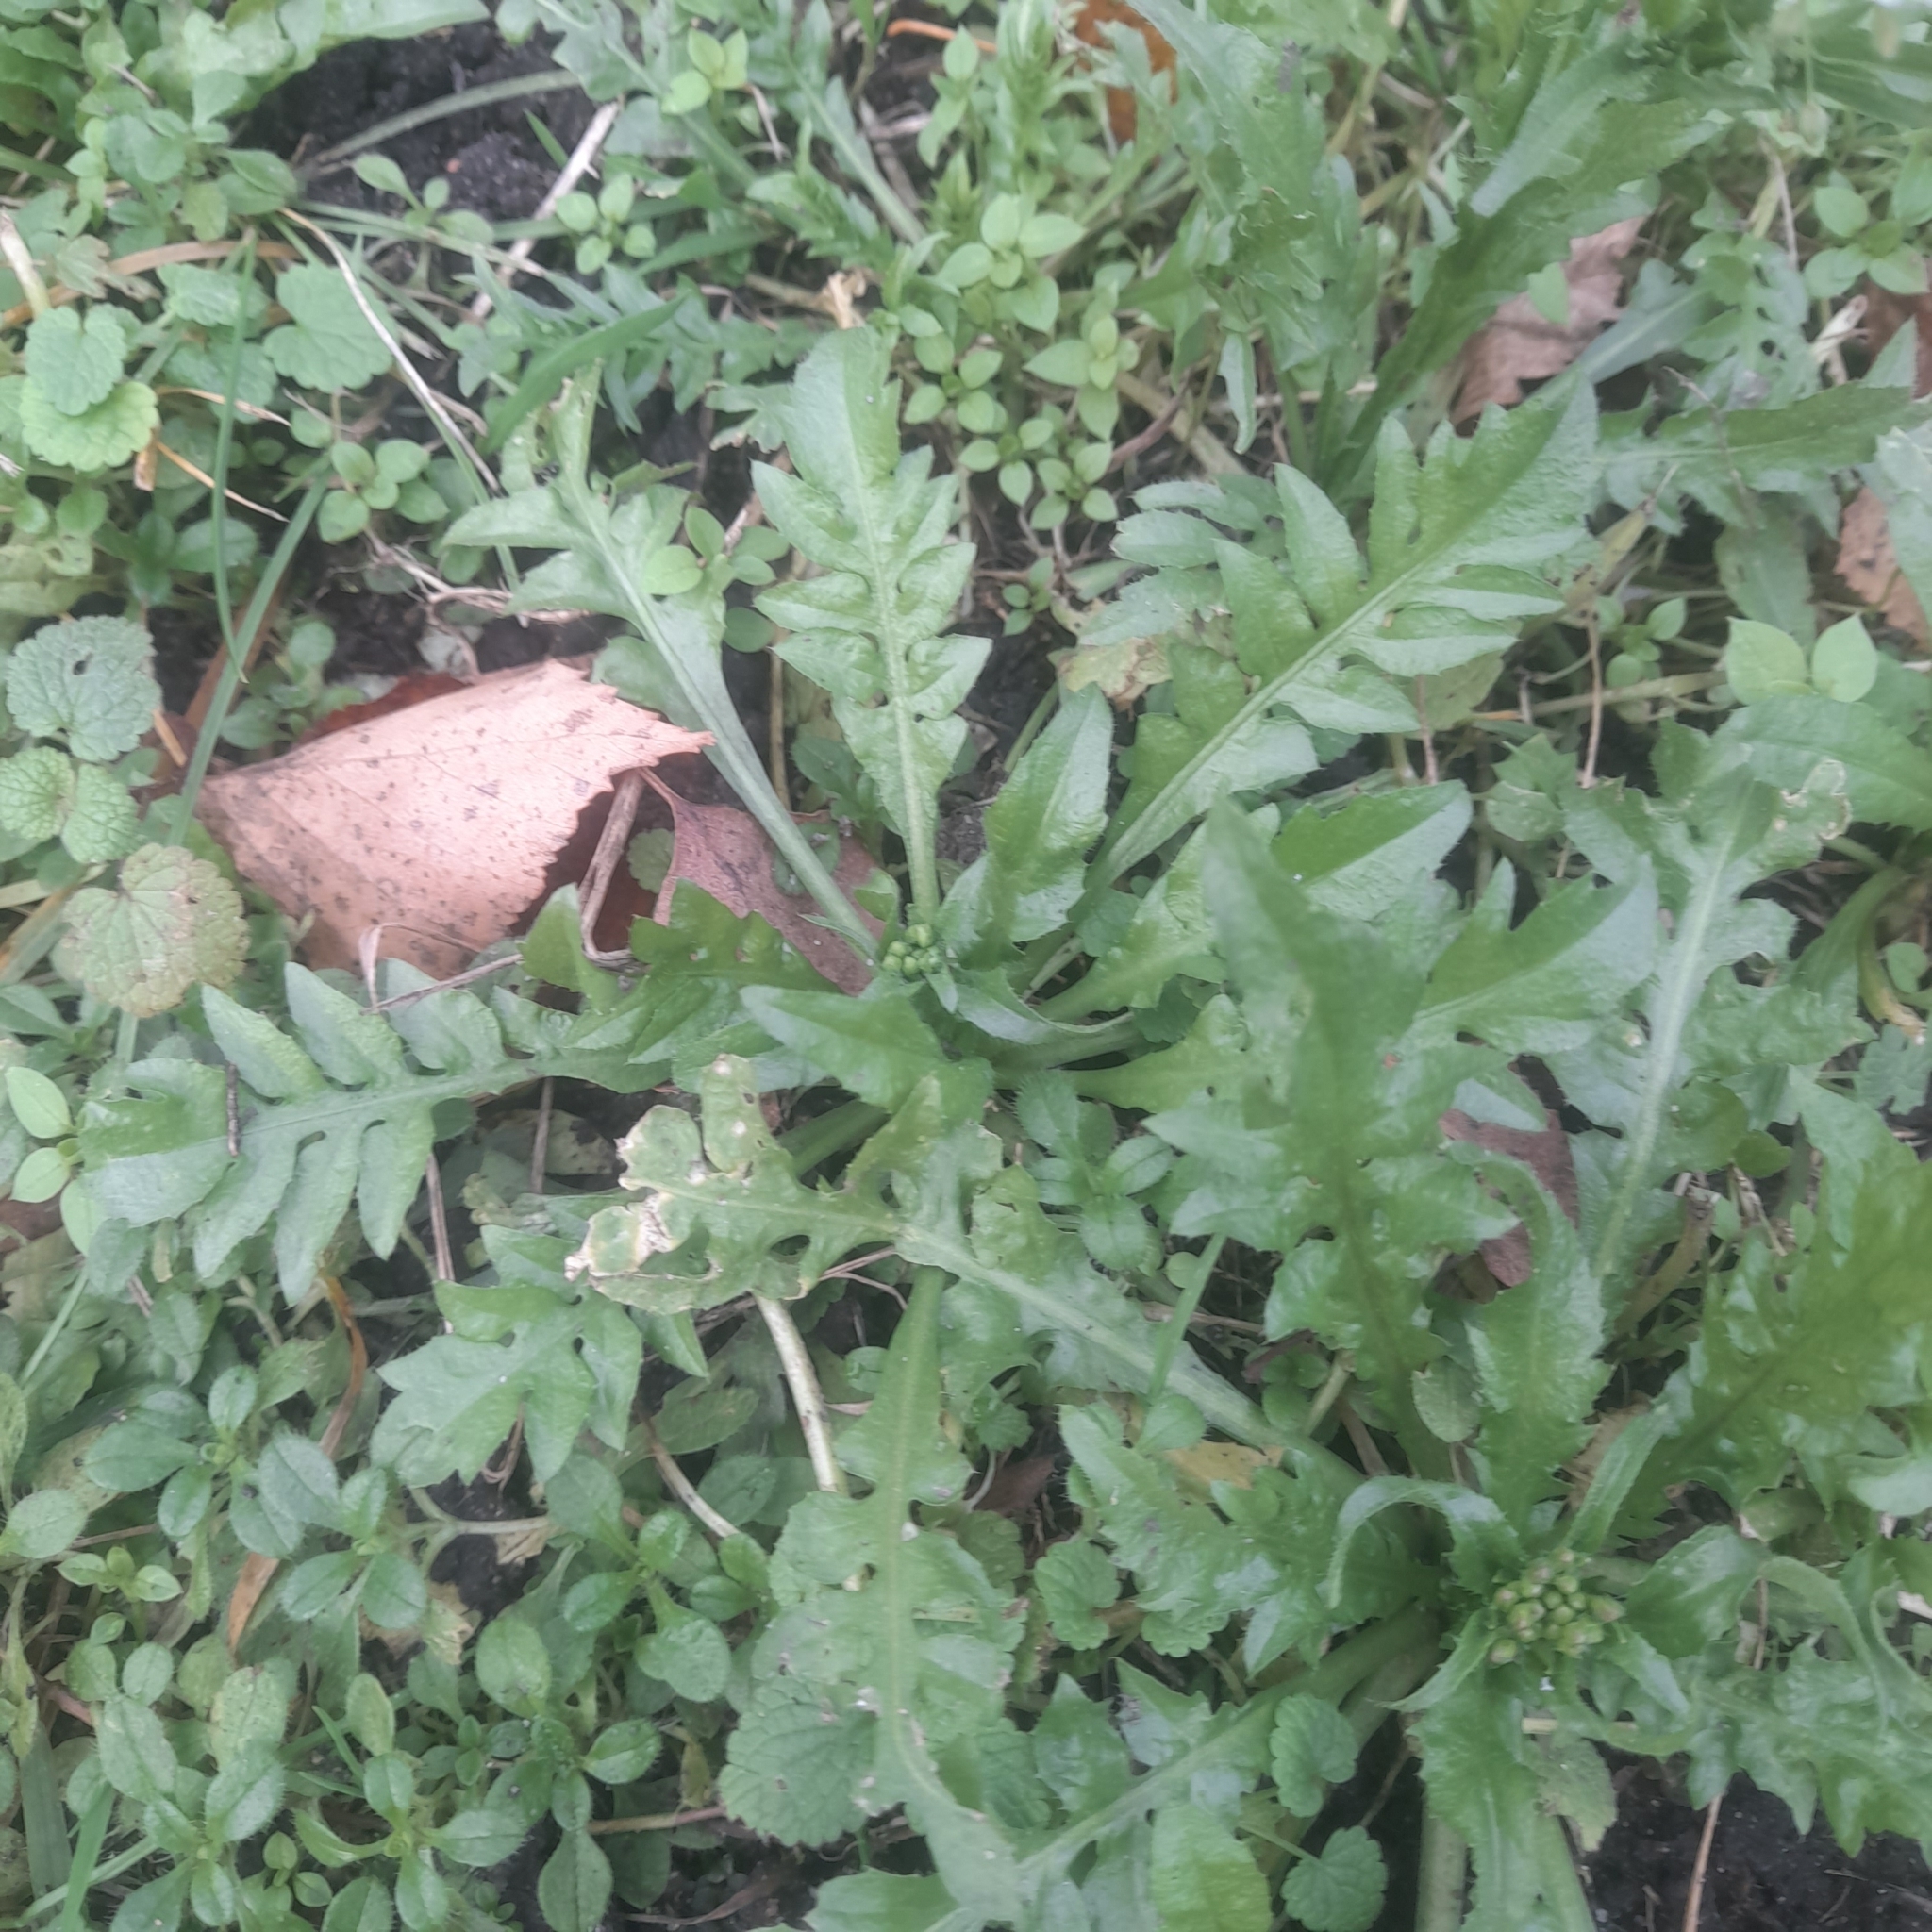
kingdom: Plantae
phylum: Tracheophyta
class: Magnoliopsida
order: Brassicales
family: Brassicaceae
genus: Capsella
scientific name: Capsella bursa-pastoris
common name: Shepherd's purse
